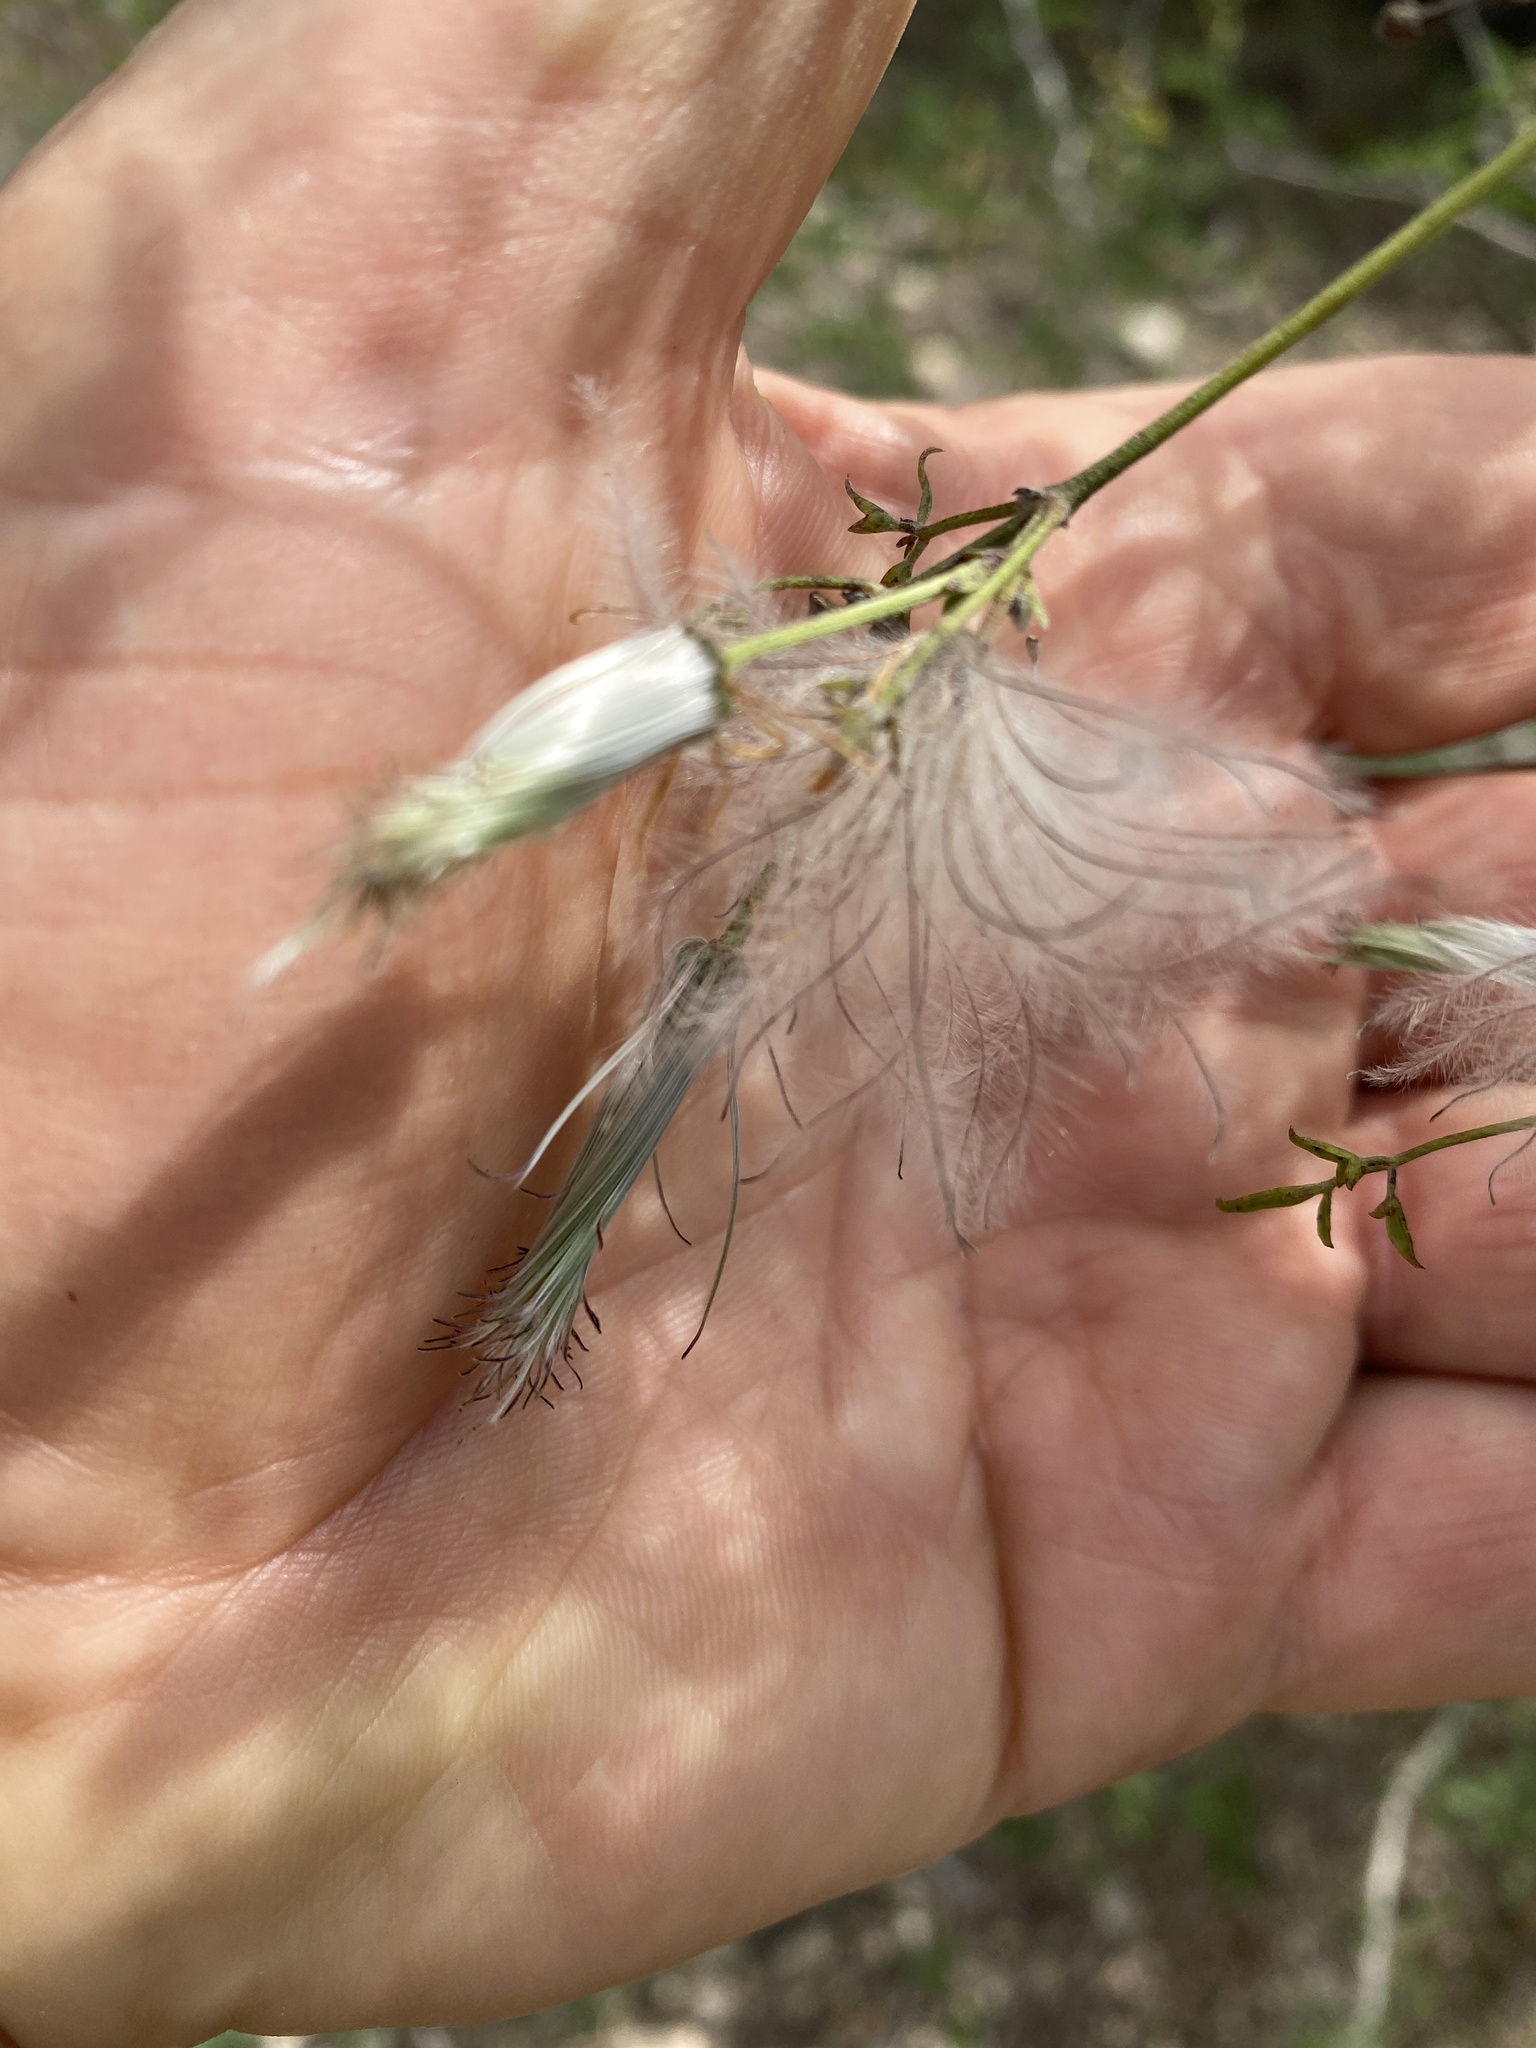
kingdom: Plantae
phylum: Tracheophyta
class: Magnoliopsida
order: Ranunculales
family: Ranunculaceae
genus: Clematis
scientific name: Clematis drummondii
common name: Texas virgin's bower
